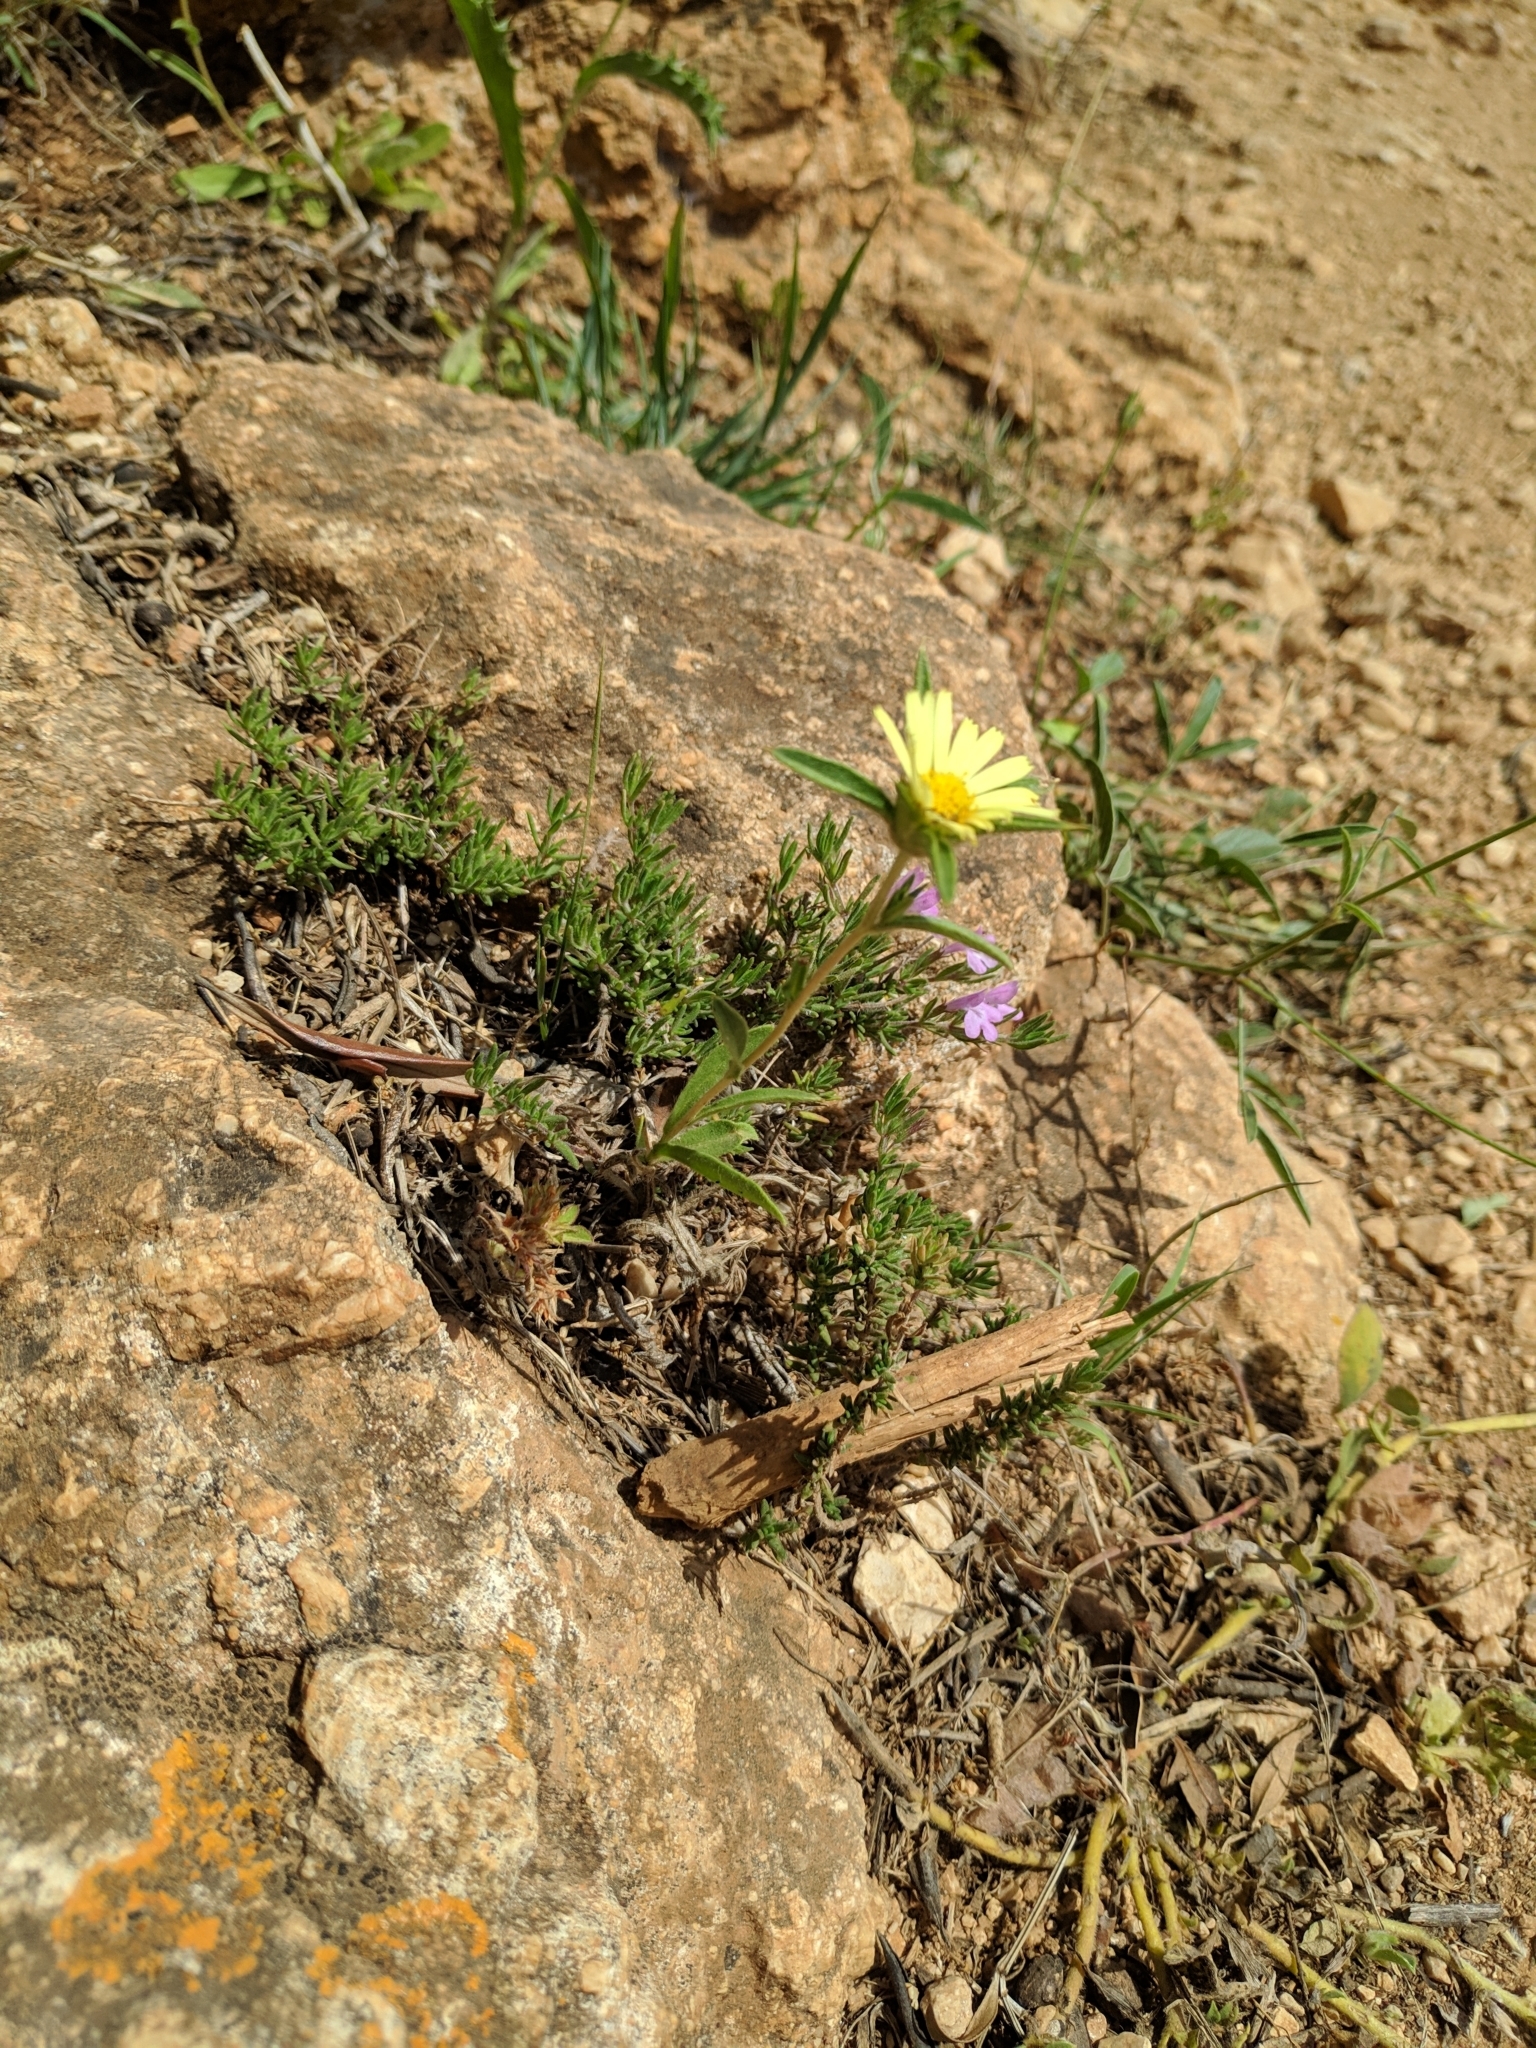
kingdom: Plantae
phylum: Tracheophyta
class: Magnoliopsida
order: Asterales
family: Asteraceae
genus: Pallenis
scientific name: Pallenis spinosa
